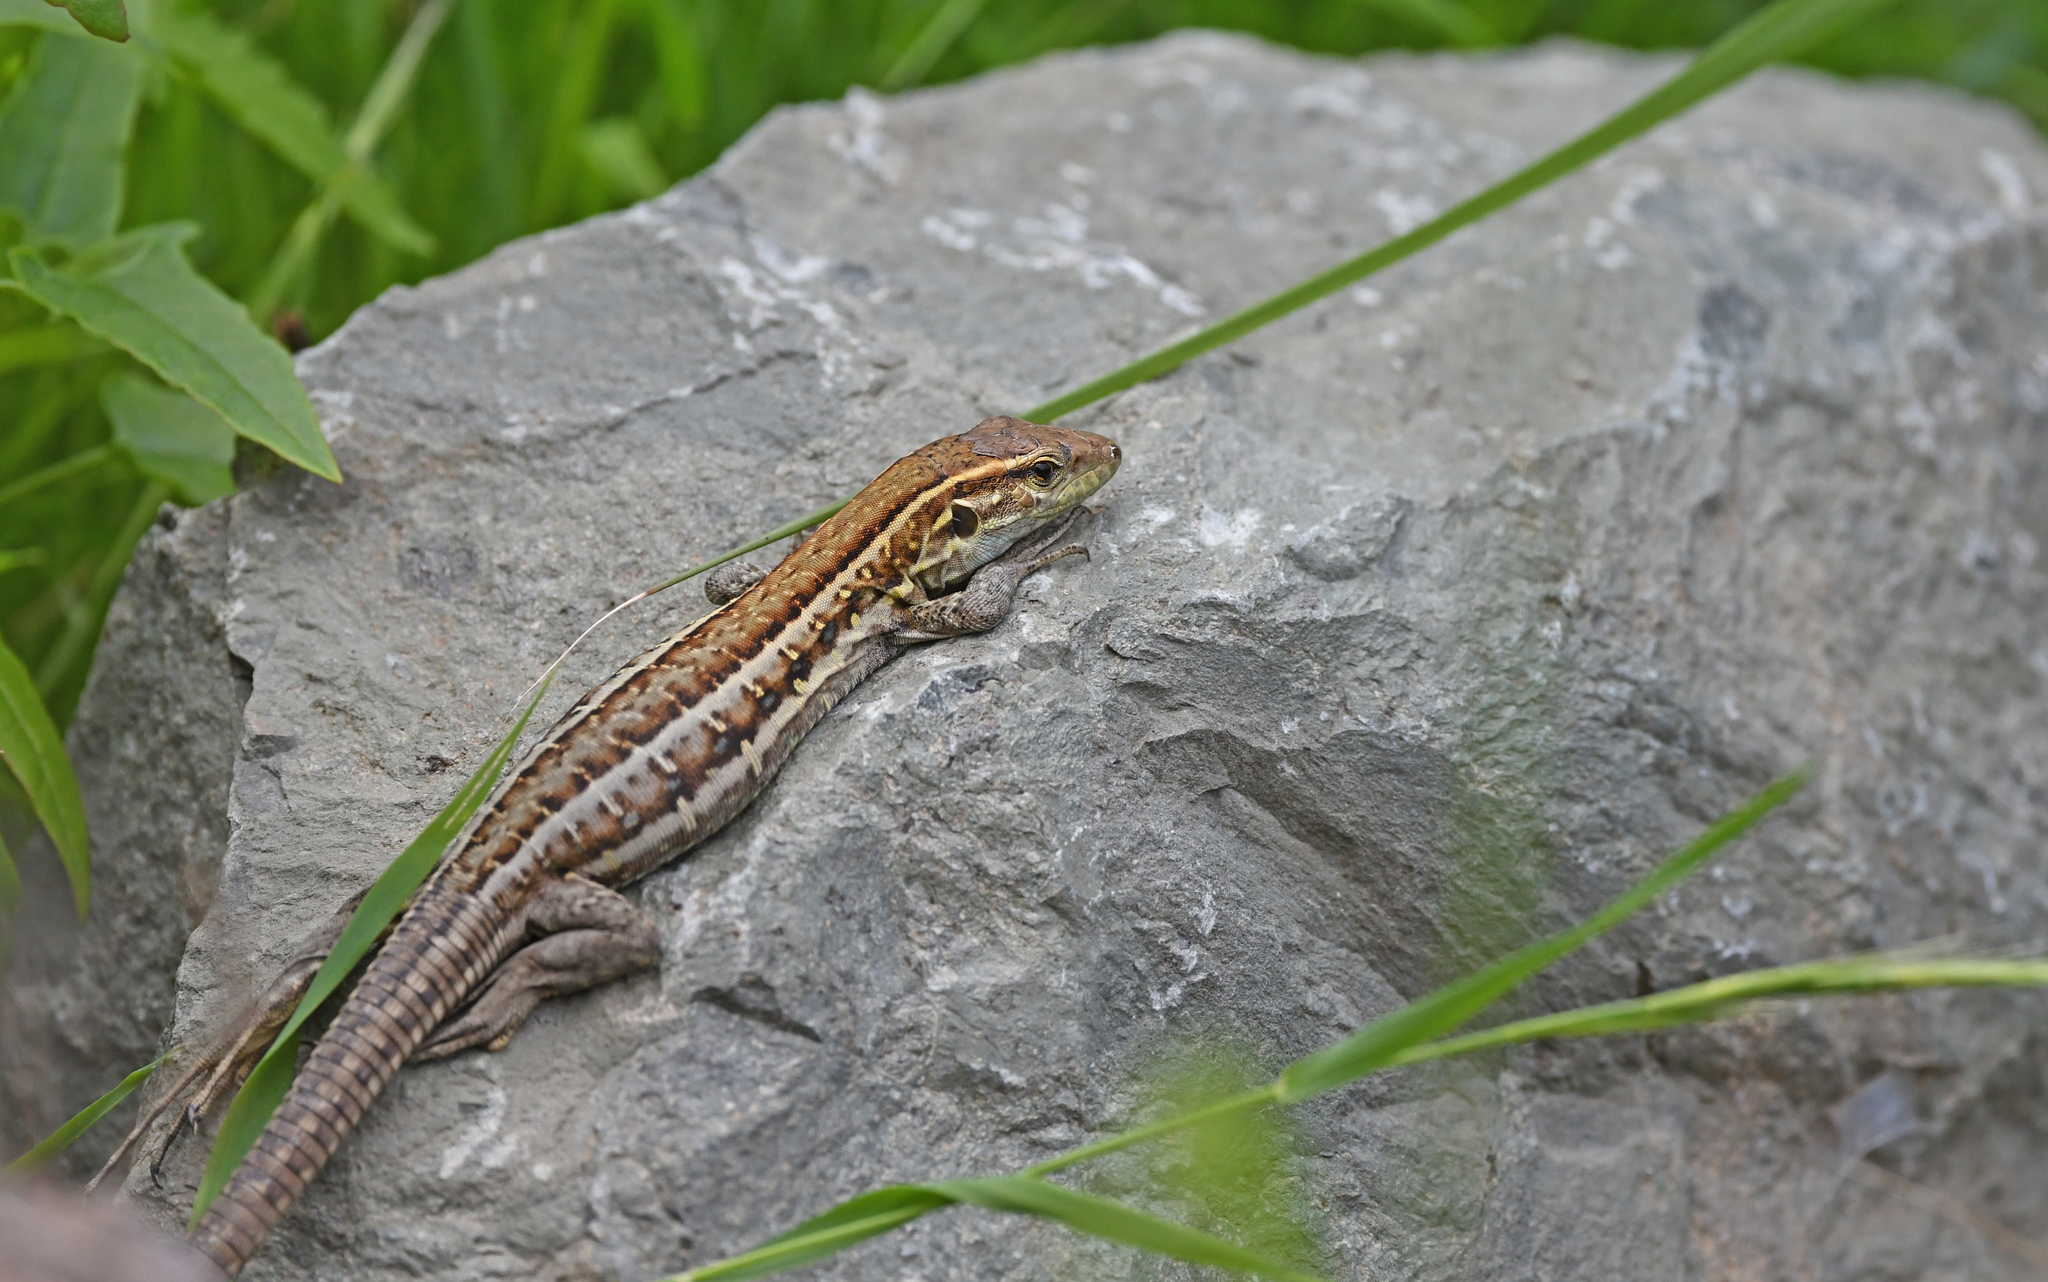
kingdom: Animalia
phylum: Chordata
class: Squamata
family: Lacertidae
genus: Gallotia
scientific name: Gallotia galloti
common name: Gallot's lizard
